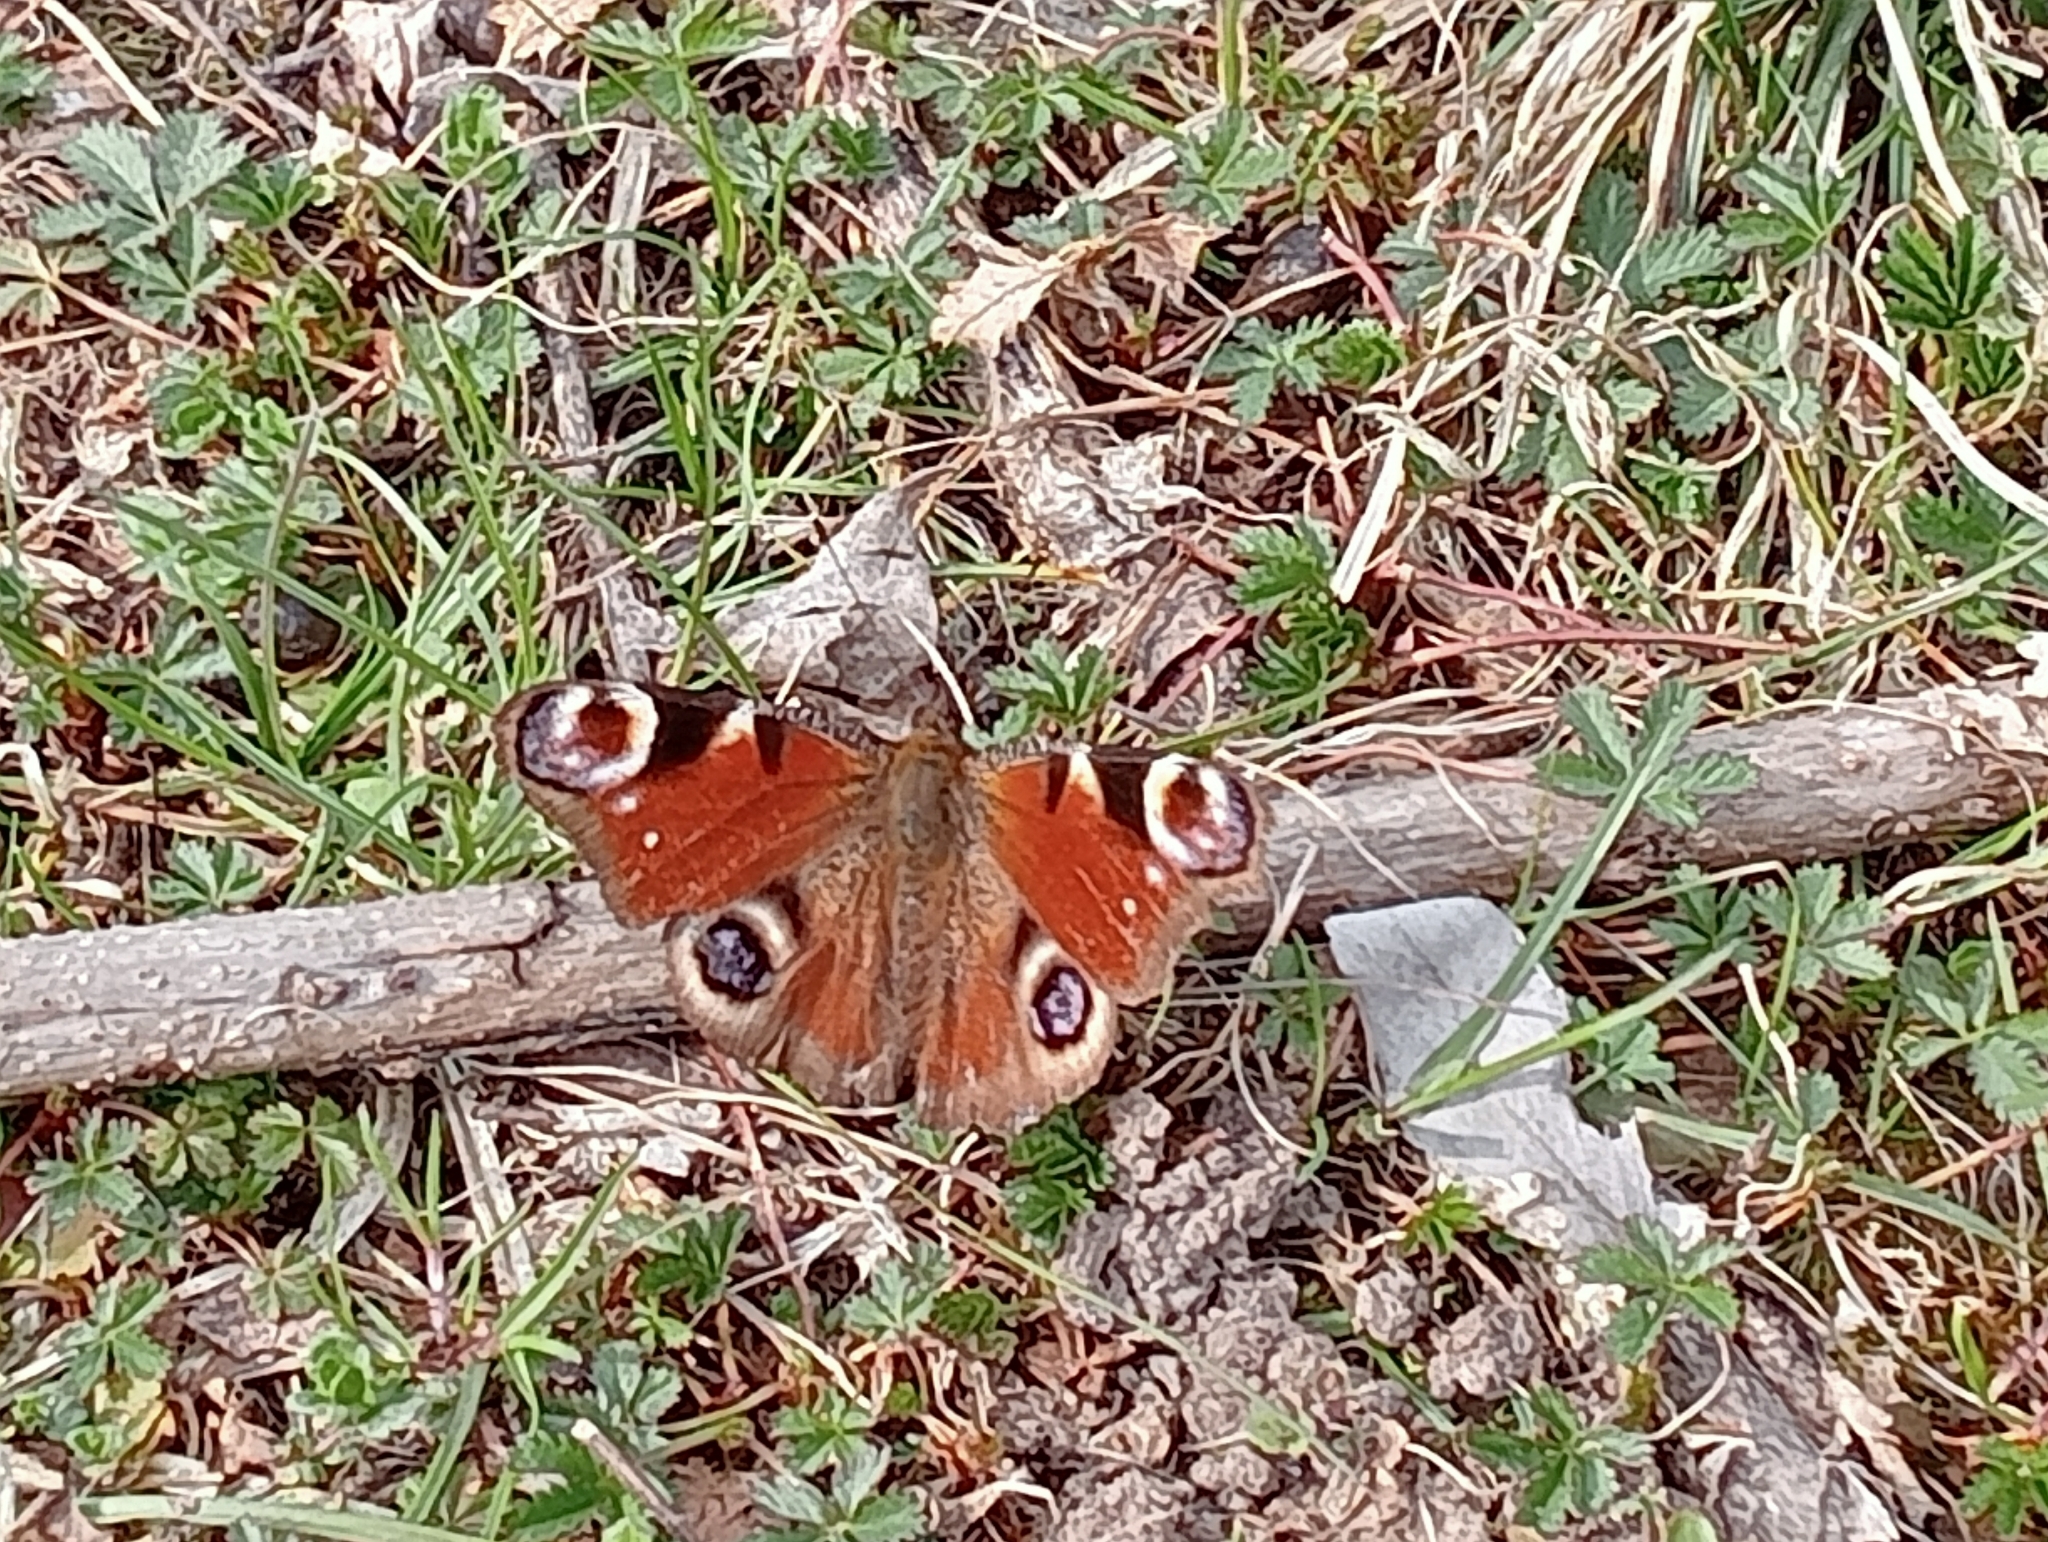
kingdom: Animalia
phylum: Arthropoda
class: Insecta
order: Lepidoptera
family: Nymphalidae
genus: Aglais
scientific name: Aglais io
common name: Peacock
